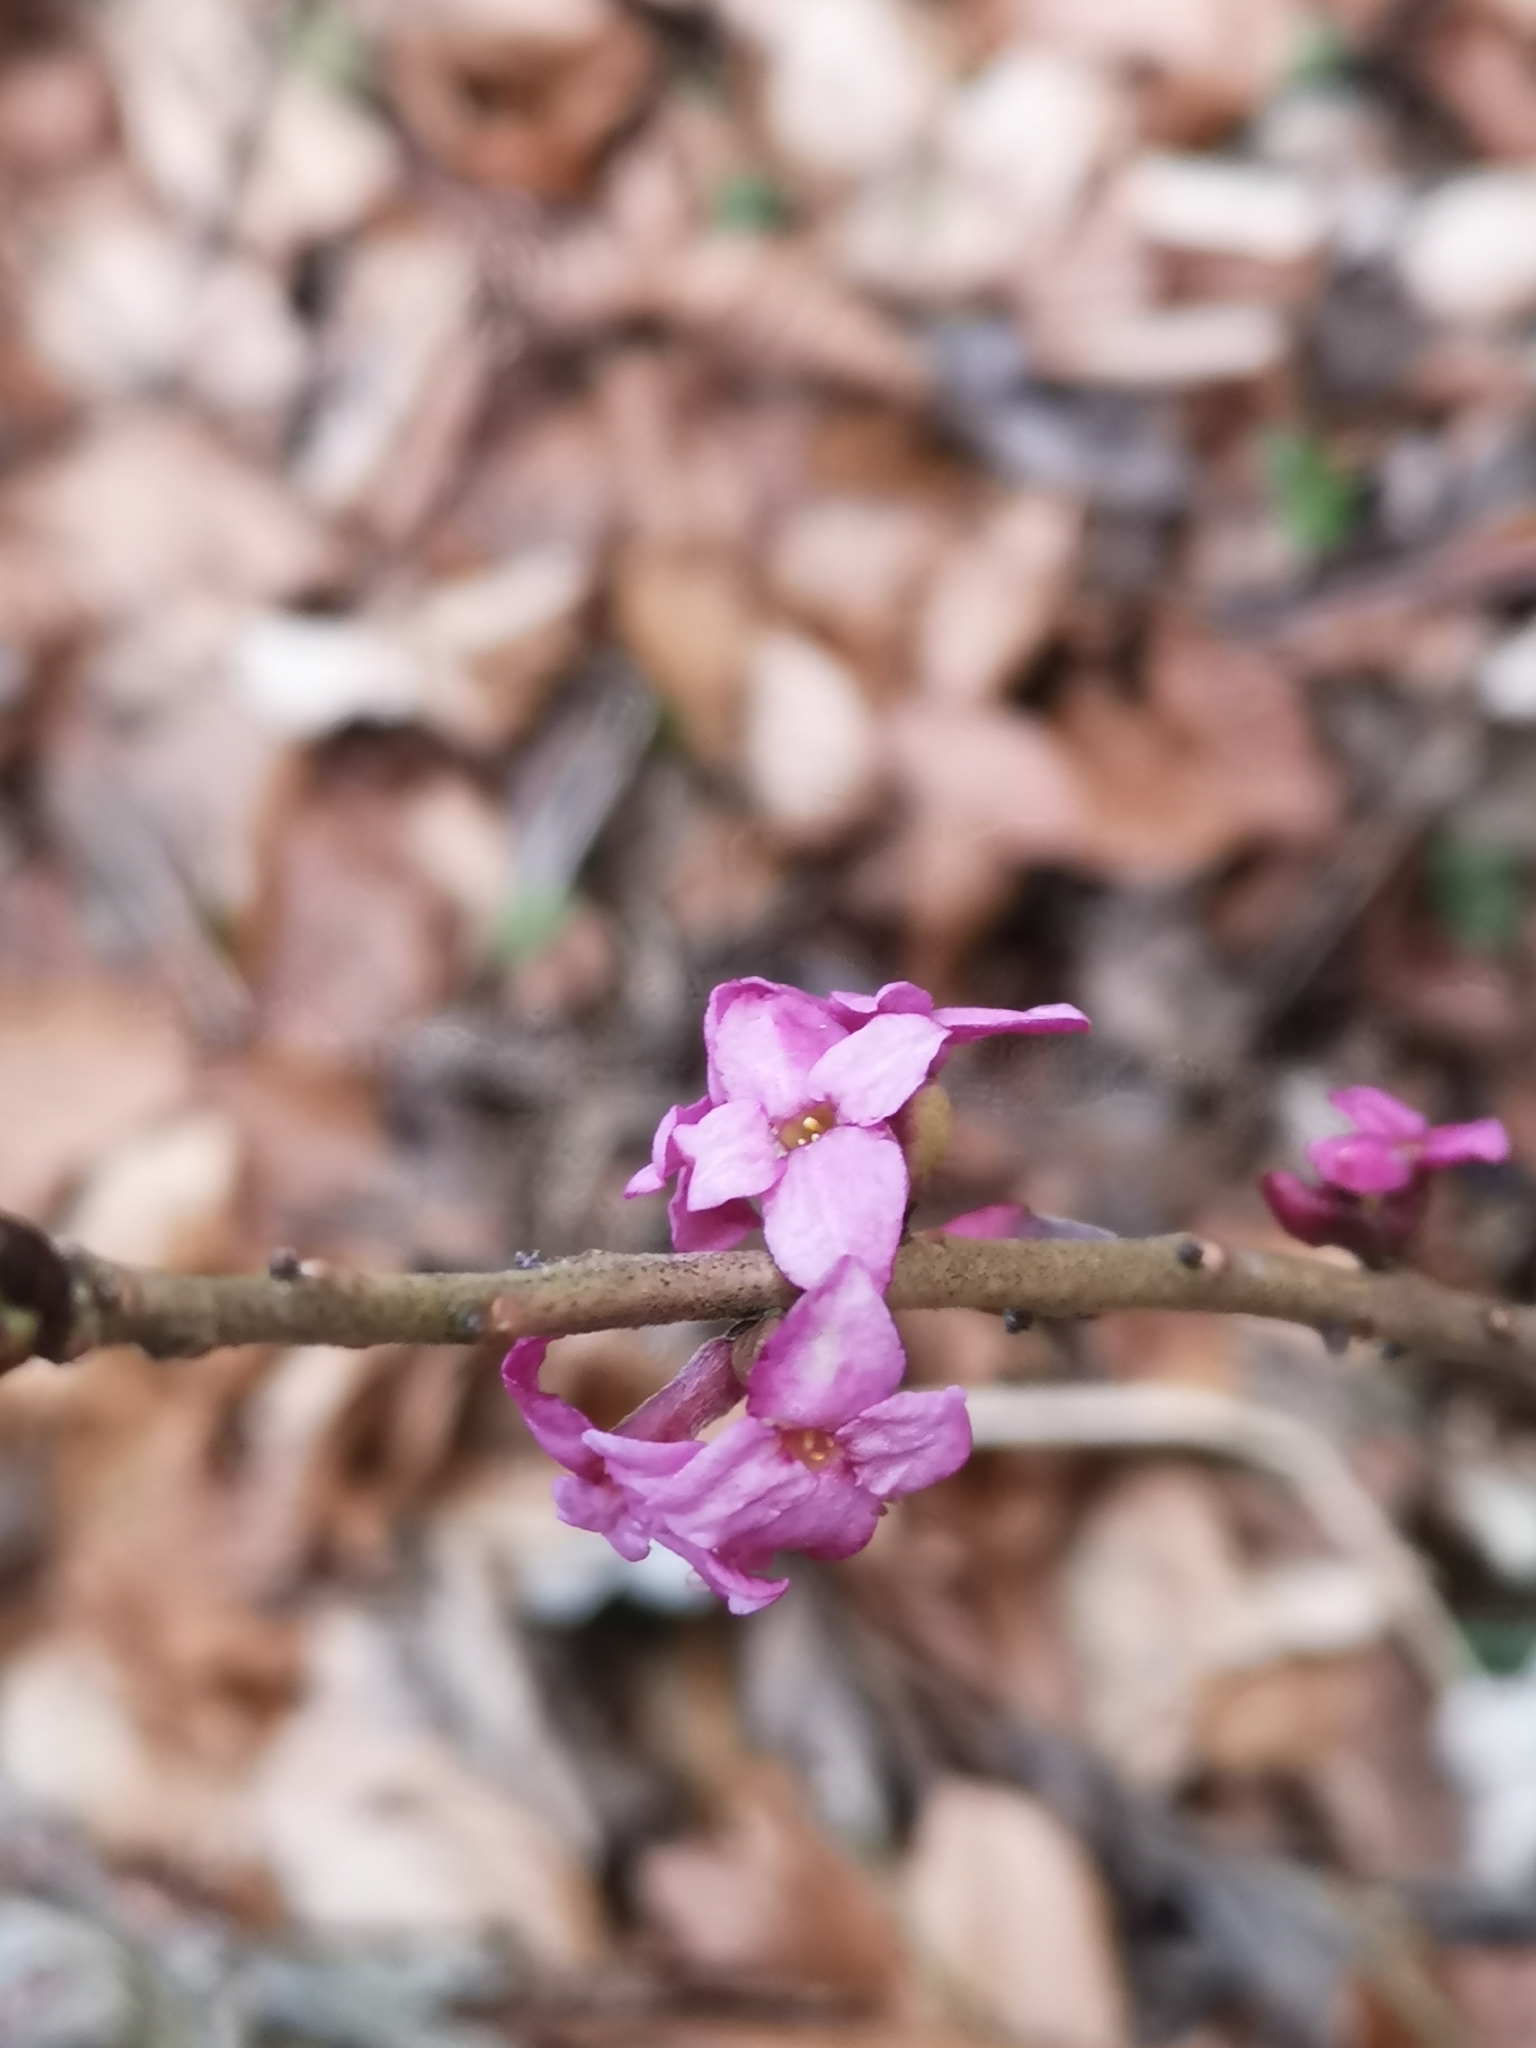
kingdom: Plantae
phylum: Tracheophyta
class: Magnoliopsida
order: Malvales
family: Thymelaeaceae
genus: Daphne
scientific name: Daphne mezereum
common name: Mezereon
